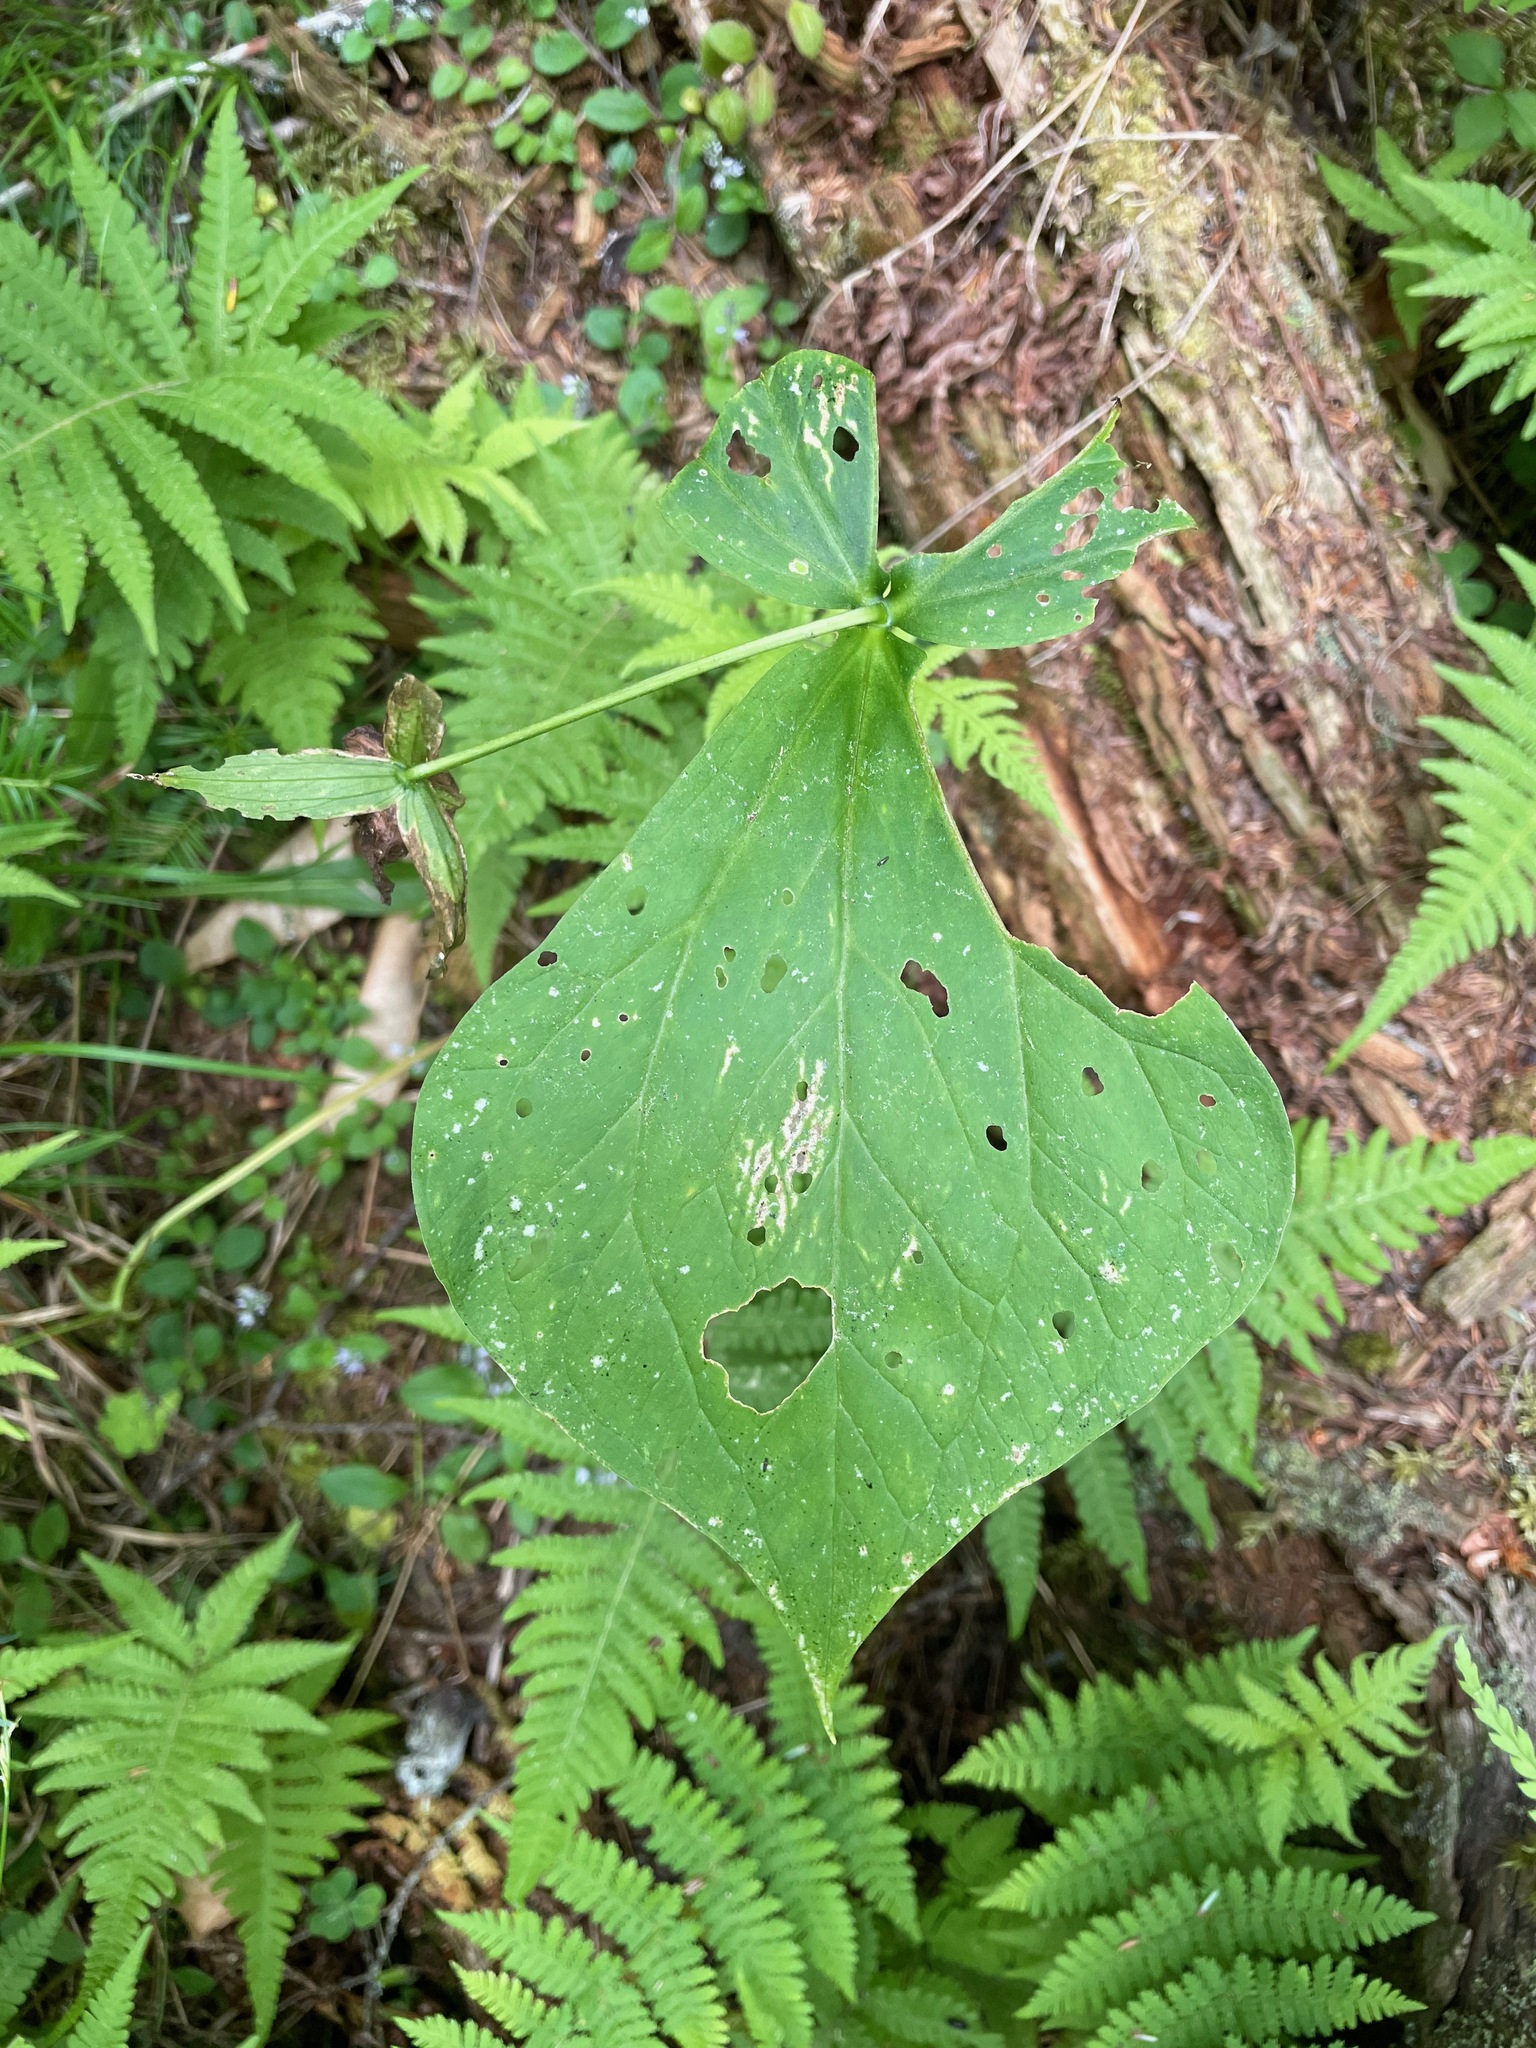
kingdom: Plantae
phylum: Tracheophyta
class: Liliopsida
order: Liliales
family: Melanthiaceae
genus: Trillium
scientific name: Trillium erectum
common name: Purple trillium
